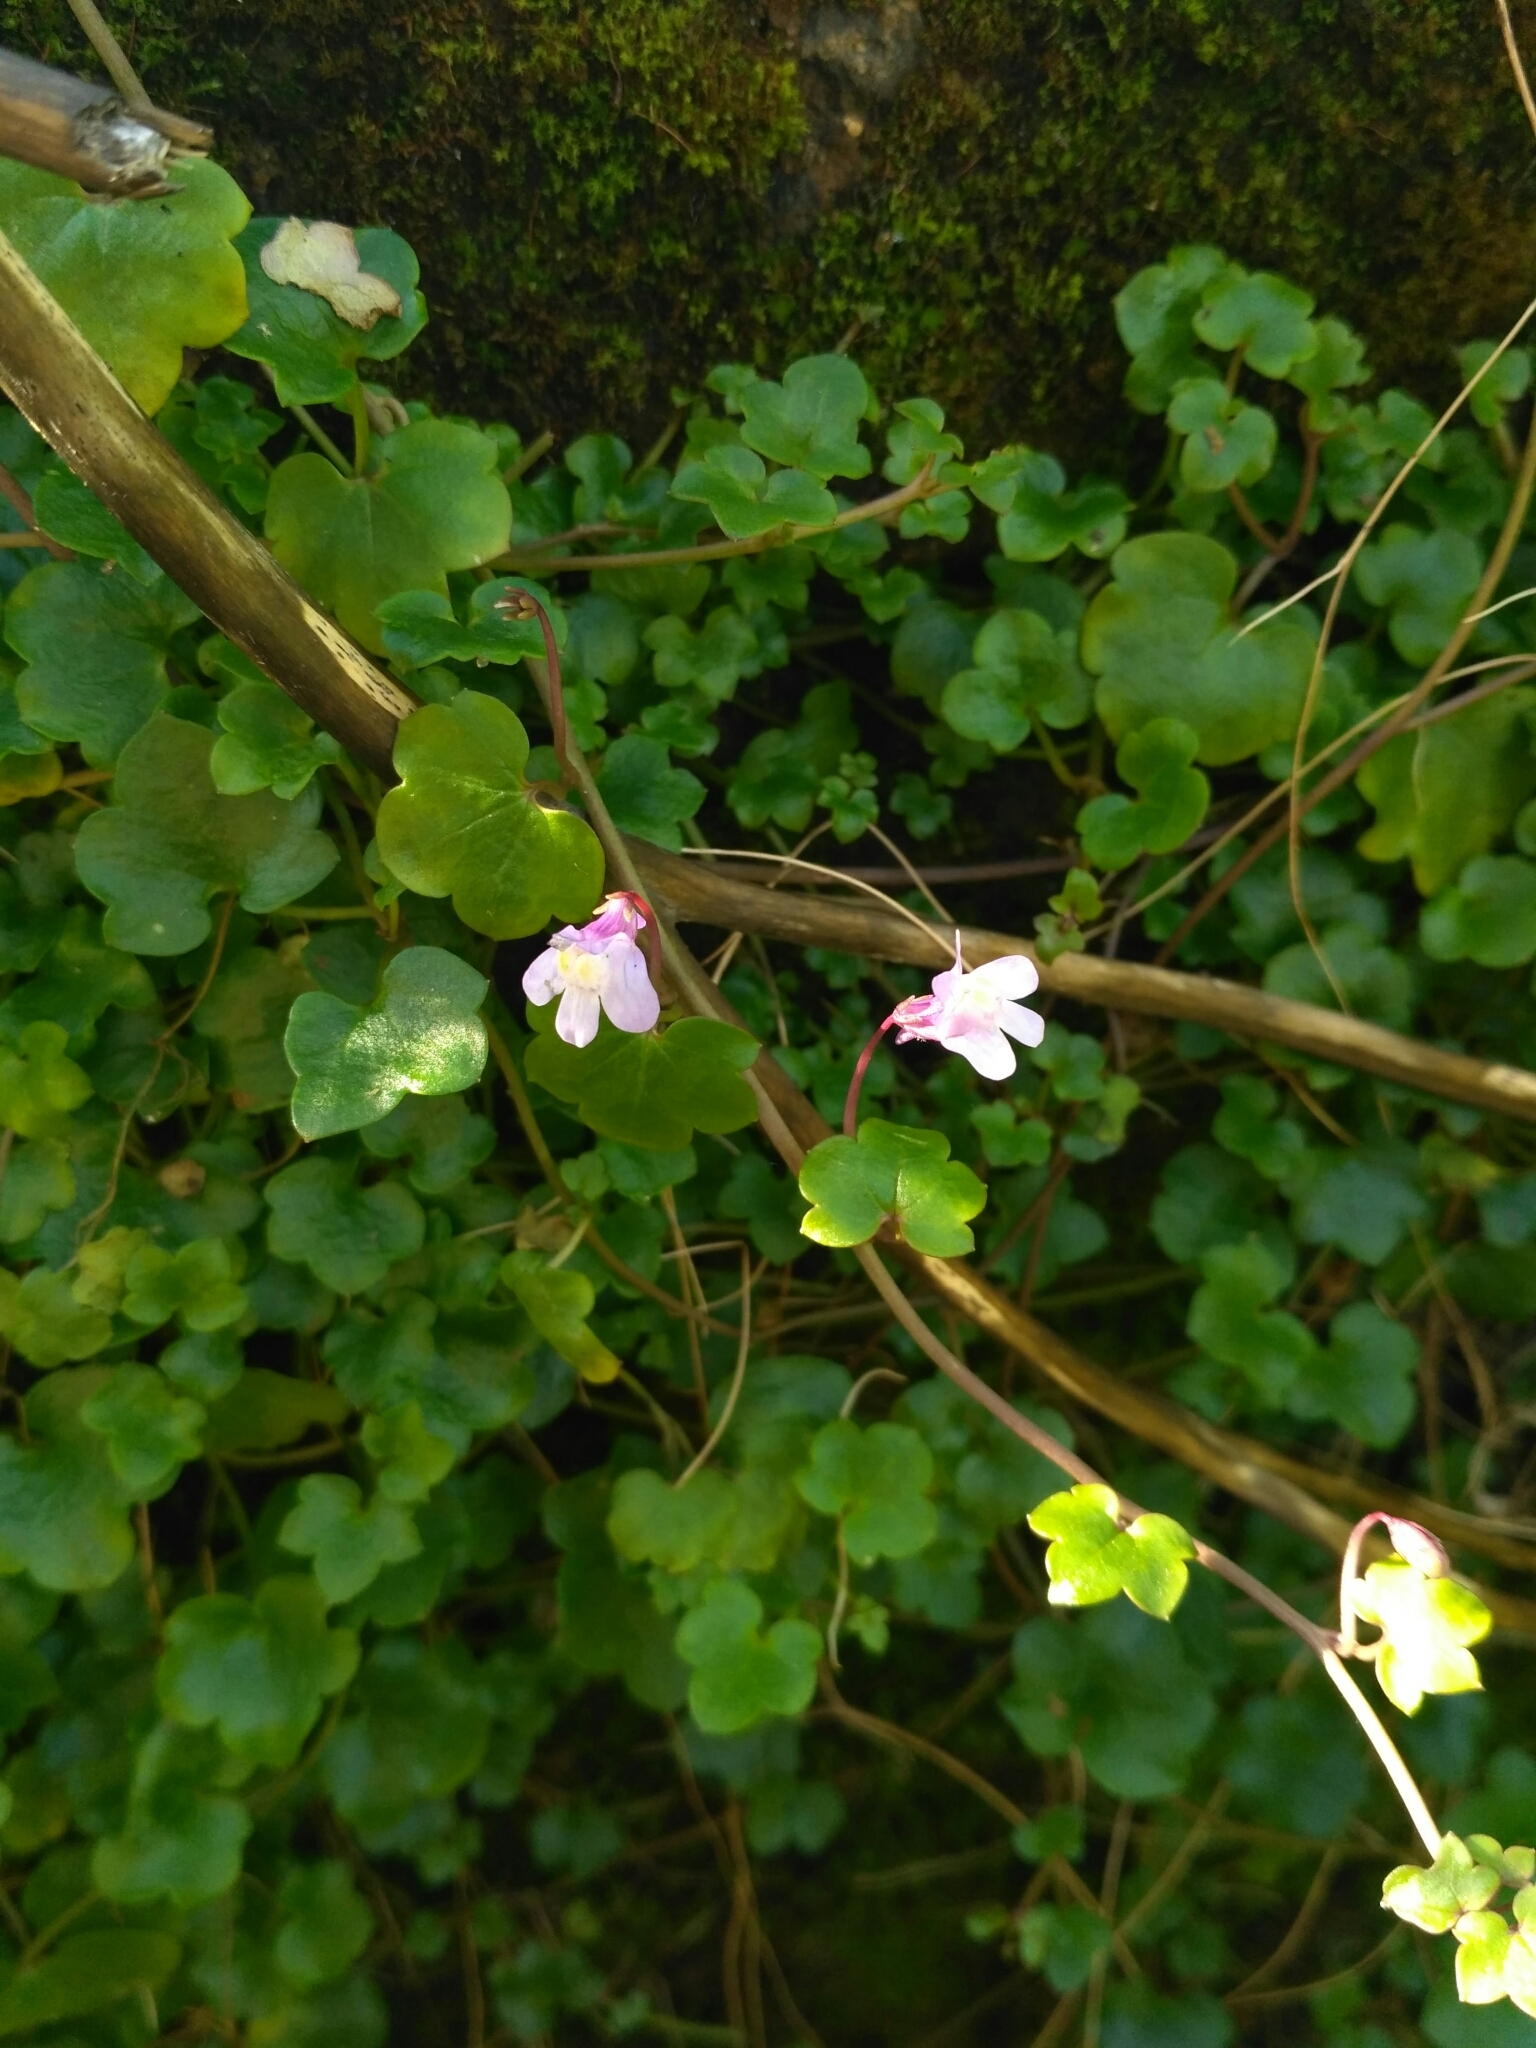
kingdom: Plantae
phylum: Tracheophyta
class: Magnoliopsida
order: Lamiales
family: Plantaginaceae
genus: Cymbalaria
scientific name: Cymbalaria muralis
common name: Ivy-leaved toadflax
